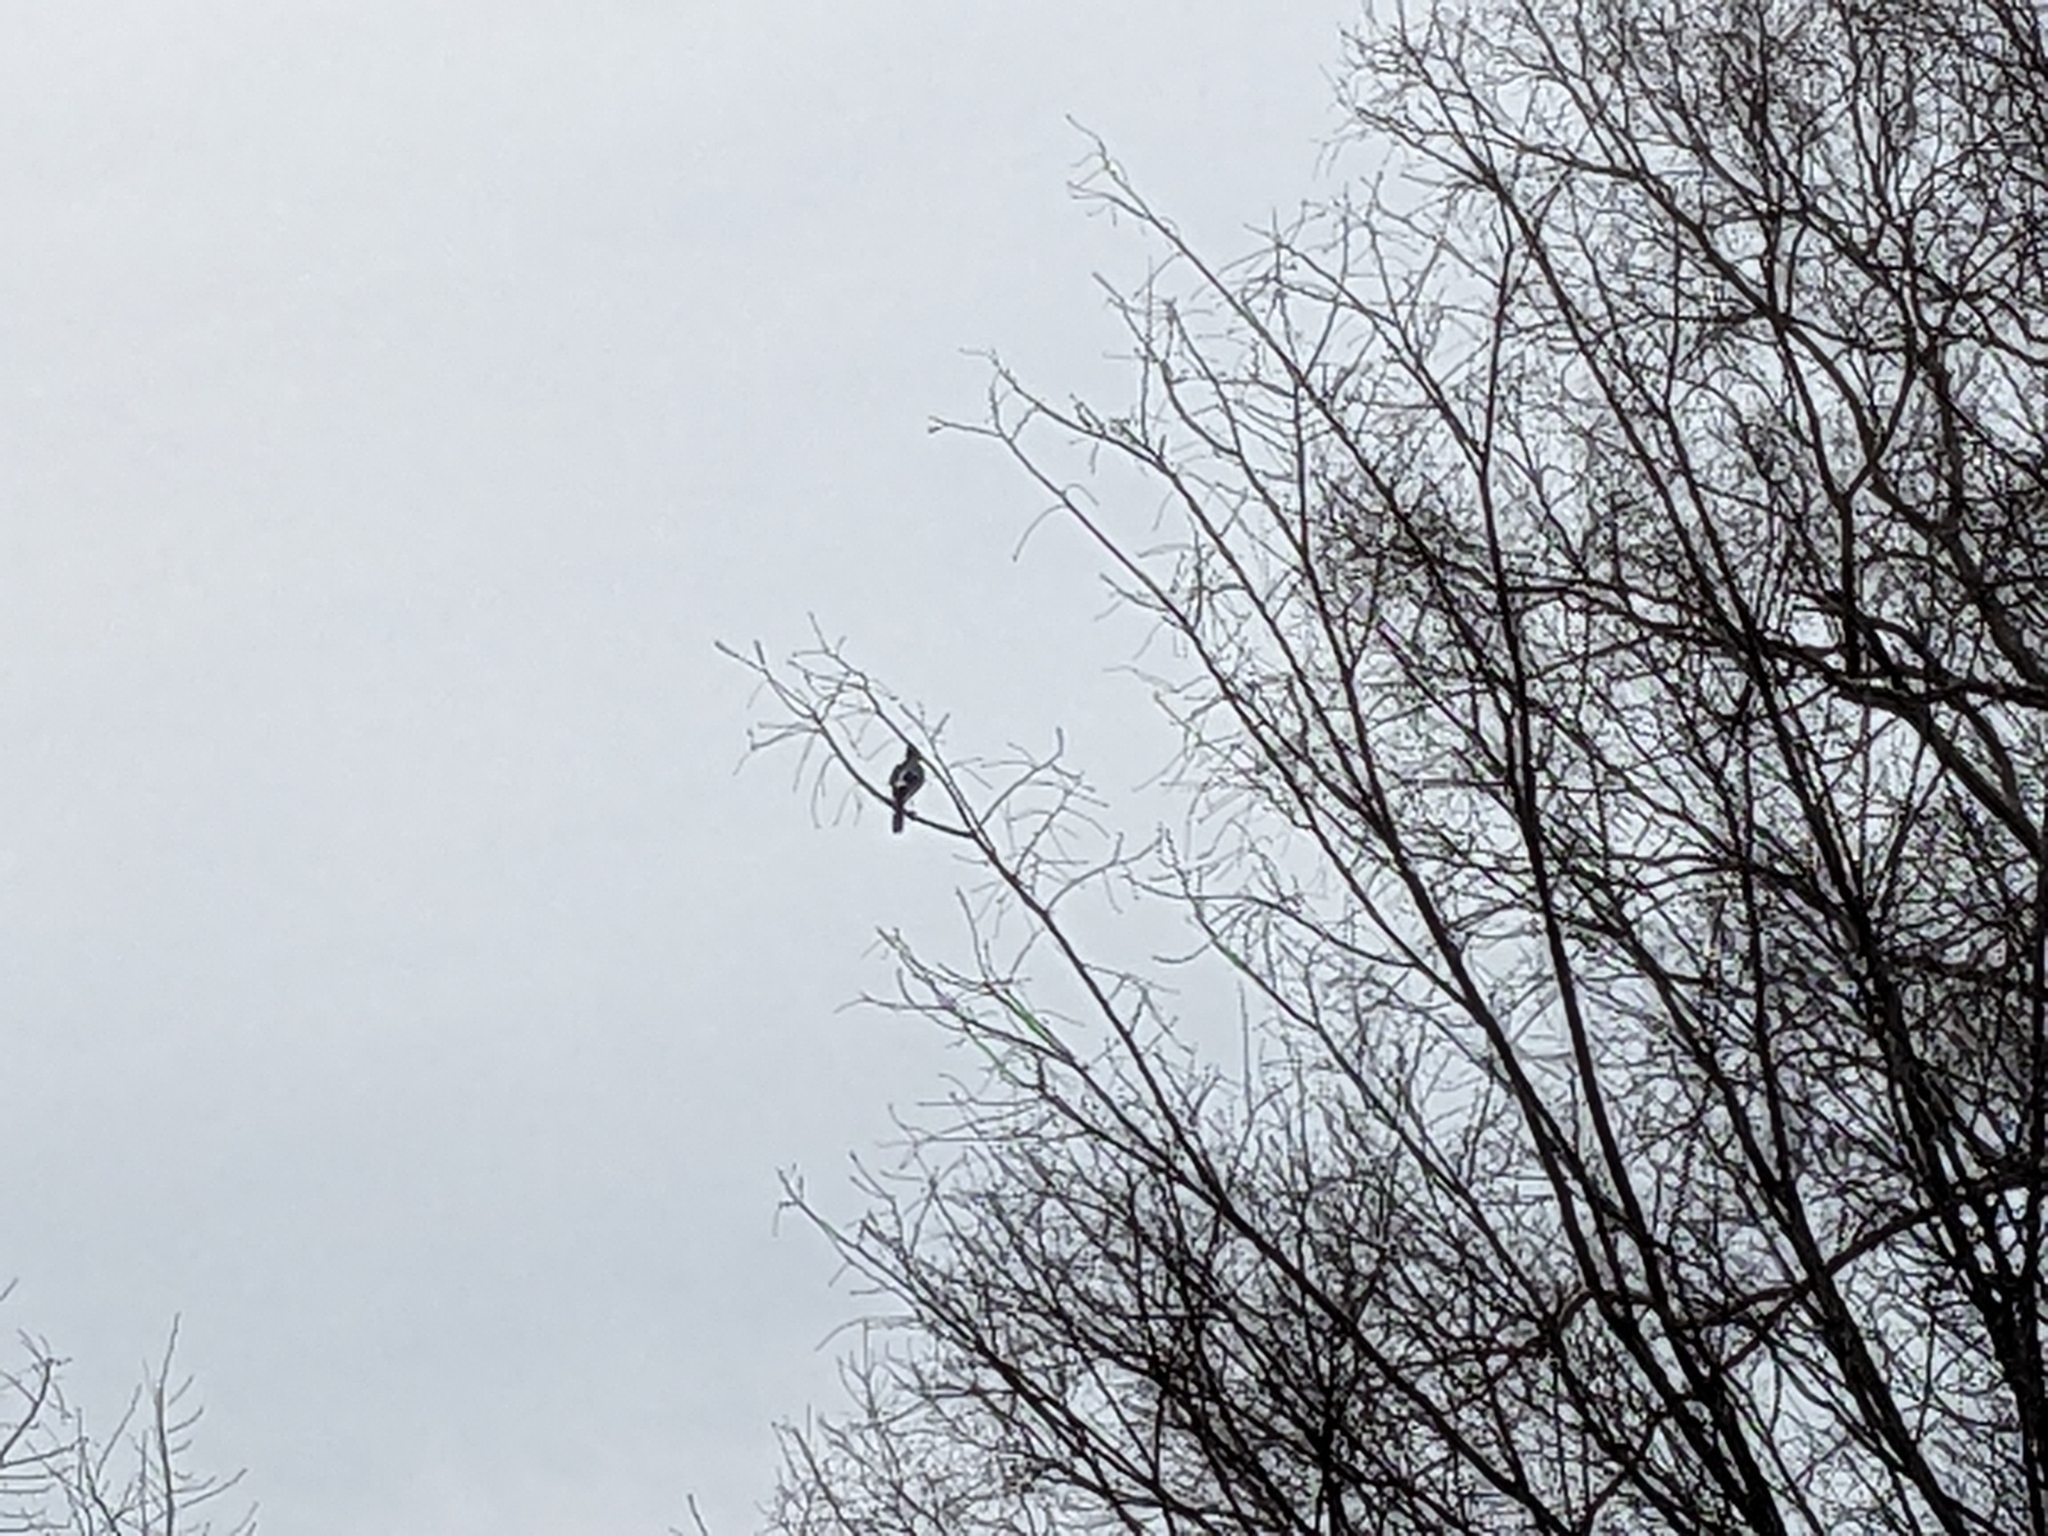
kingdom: Animalia
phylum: Chordata
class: Aves
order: Passeriformes
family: Corvidae
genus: Cyanocitta
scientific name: Cyanocitta cristata
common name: Blue jay
